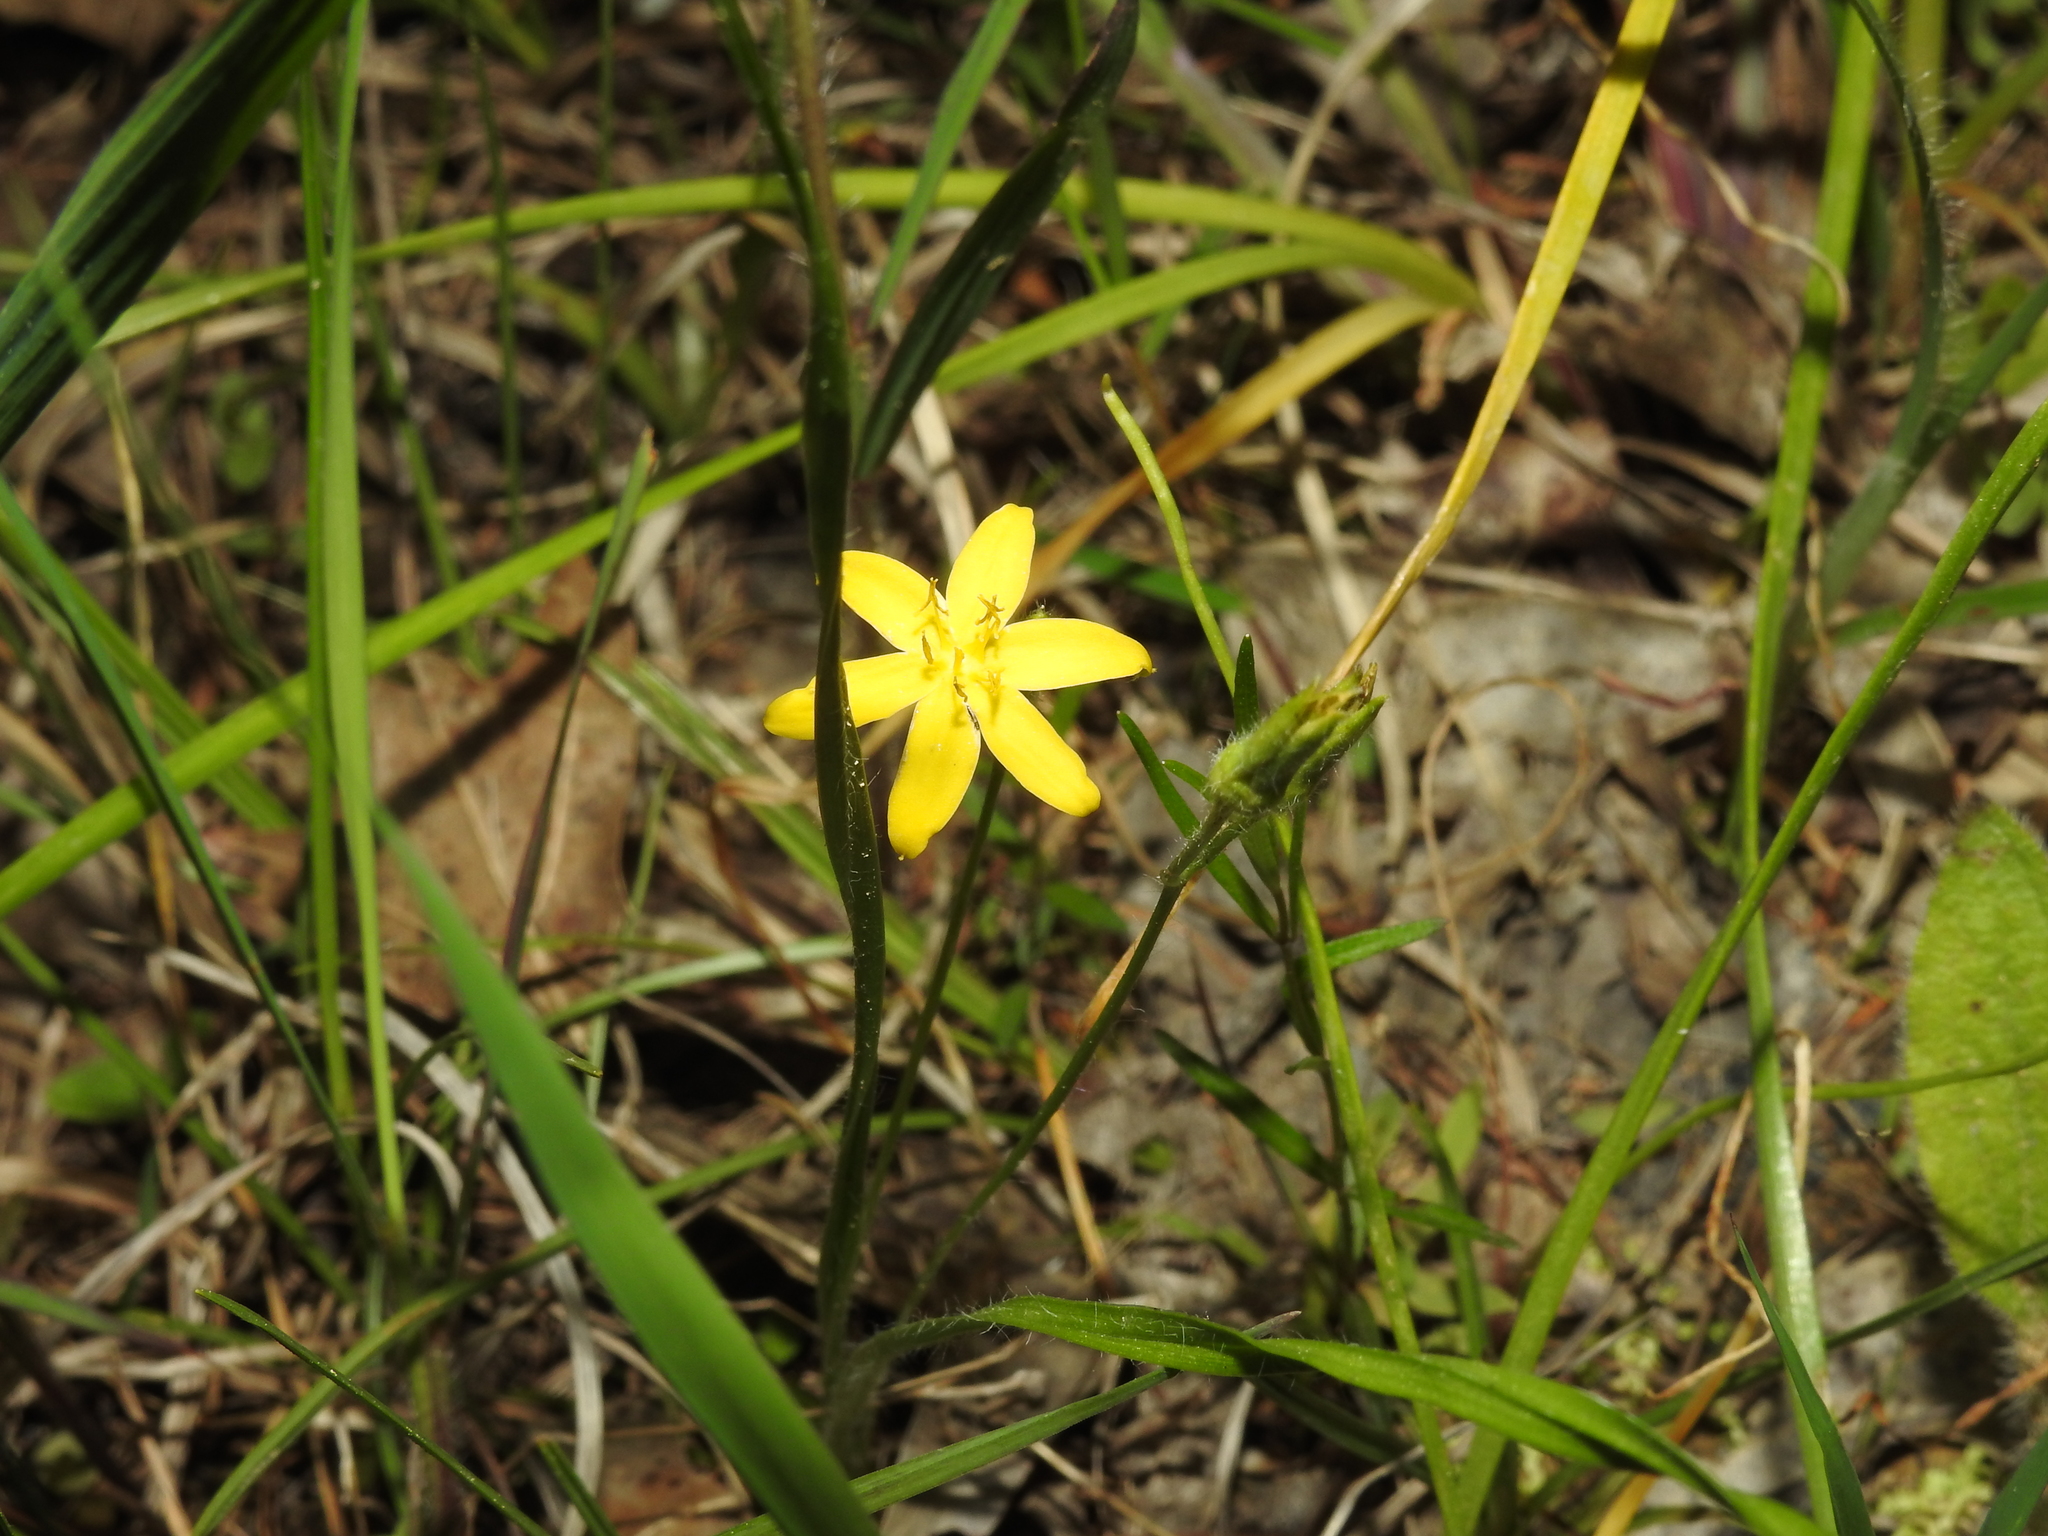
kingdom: Plantae
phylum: Tracheophyta
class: Liliopsida
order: Asparagales
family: Hypoxidaceae
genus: Hypoxis
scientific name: Hypoxis hirsuta
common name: Common goldstar
